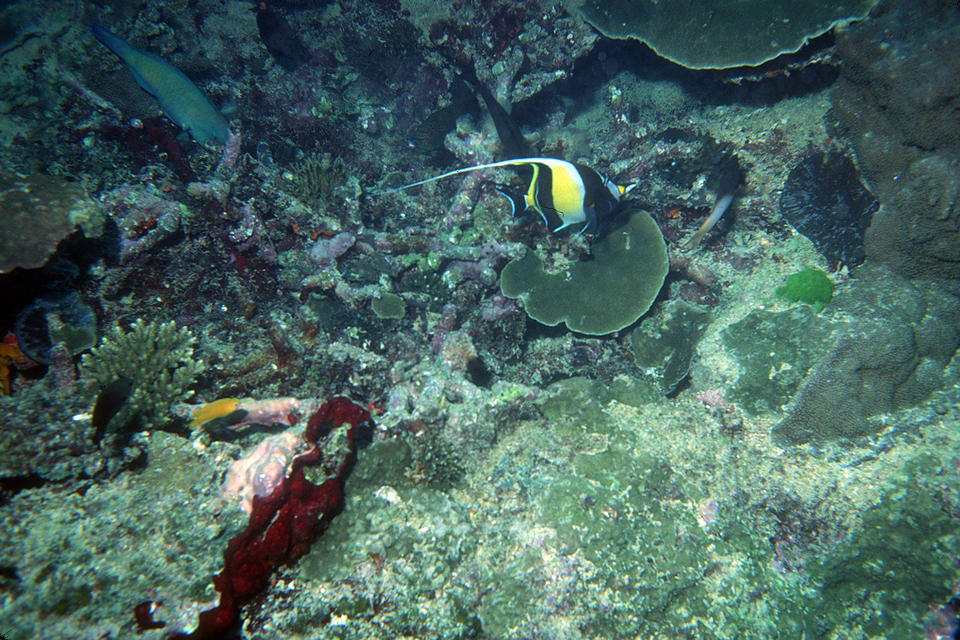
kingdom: Animalia
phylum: Chordata
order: Perciformes
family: Zanclidae
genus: Zanclus
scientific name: Zanclus cornutus
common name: Moorish idol
